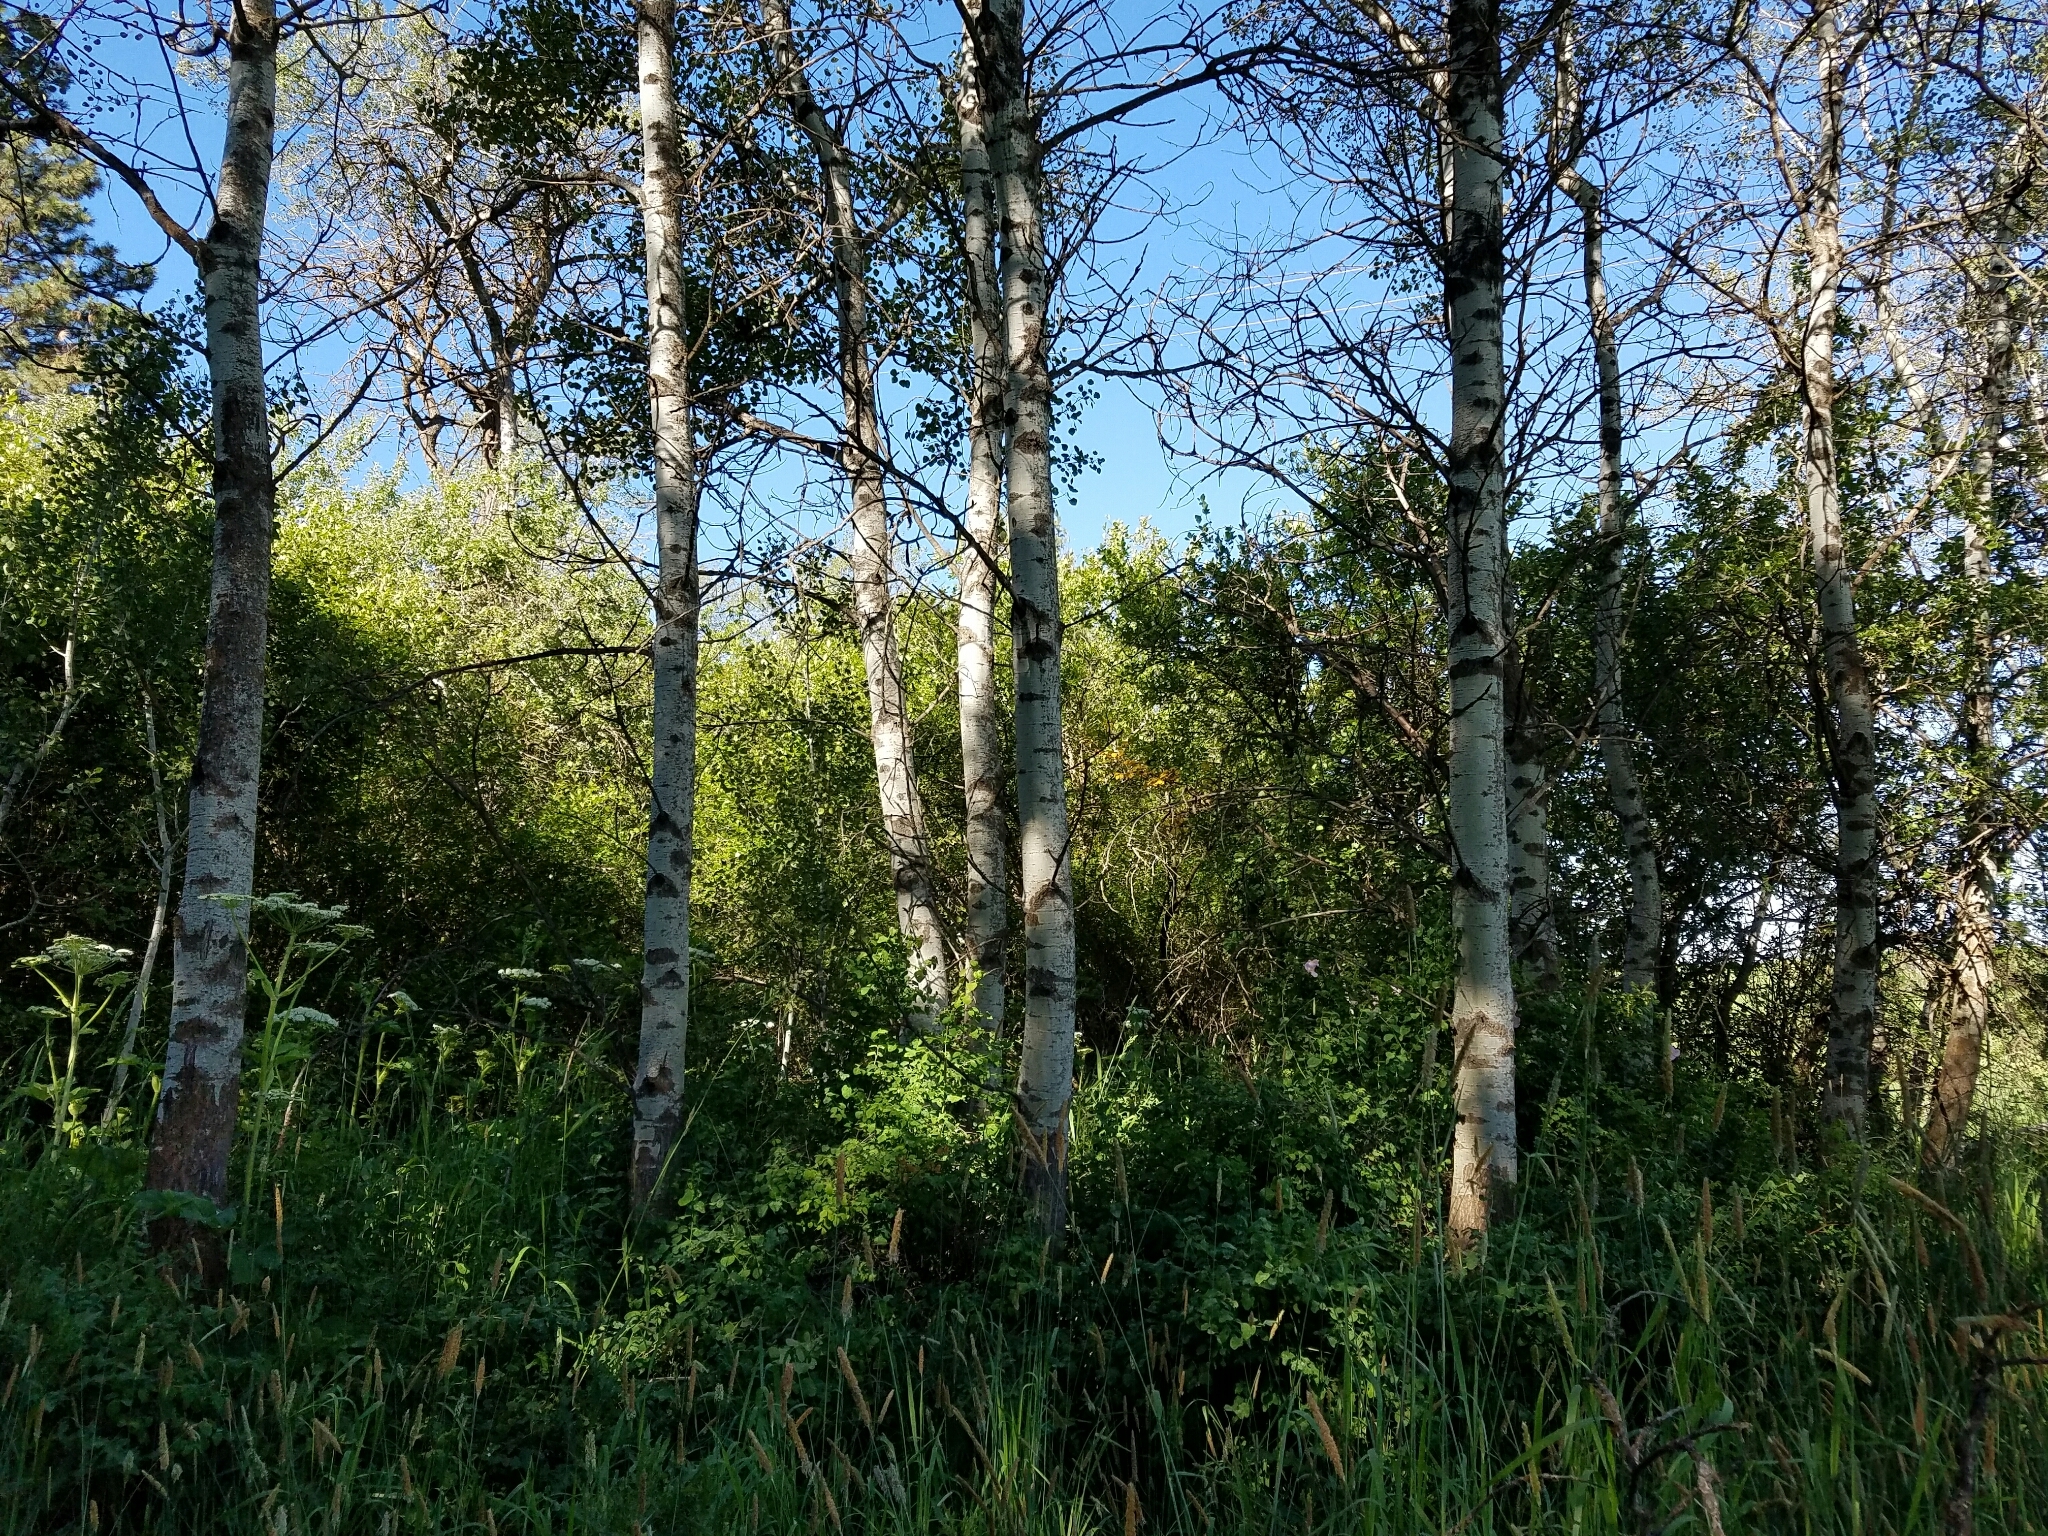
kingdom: Plantae
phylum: Tracheophyta
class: Magnoliopsida
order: Malpighiales
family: Salicaceae
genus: Populus
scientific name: Populus tremuloides
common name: Quaking aspen
